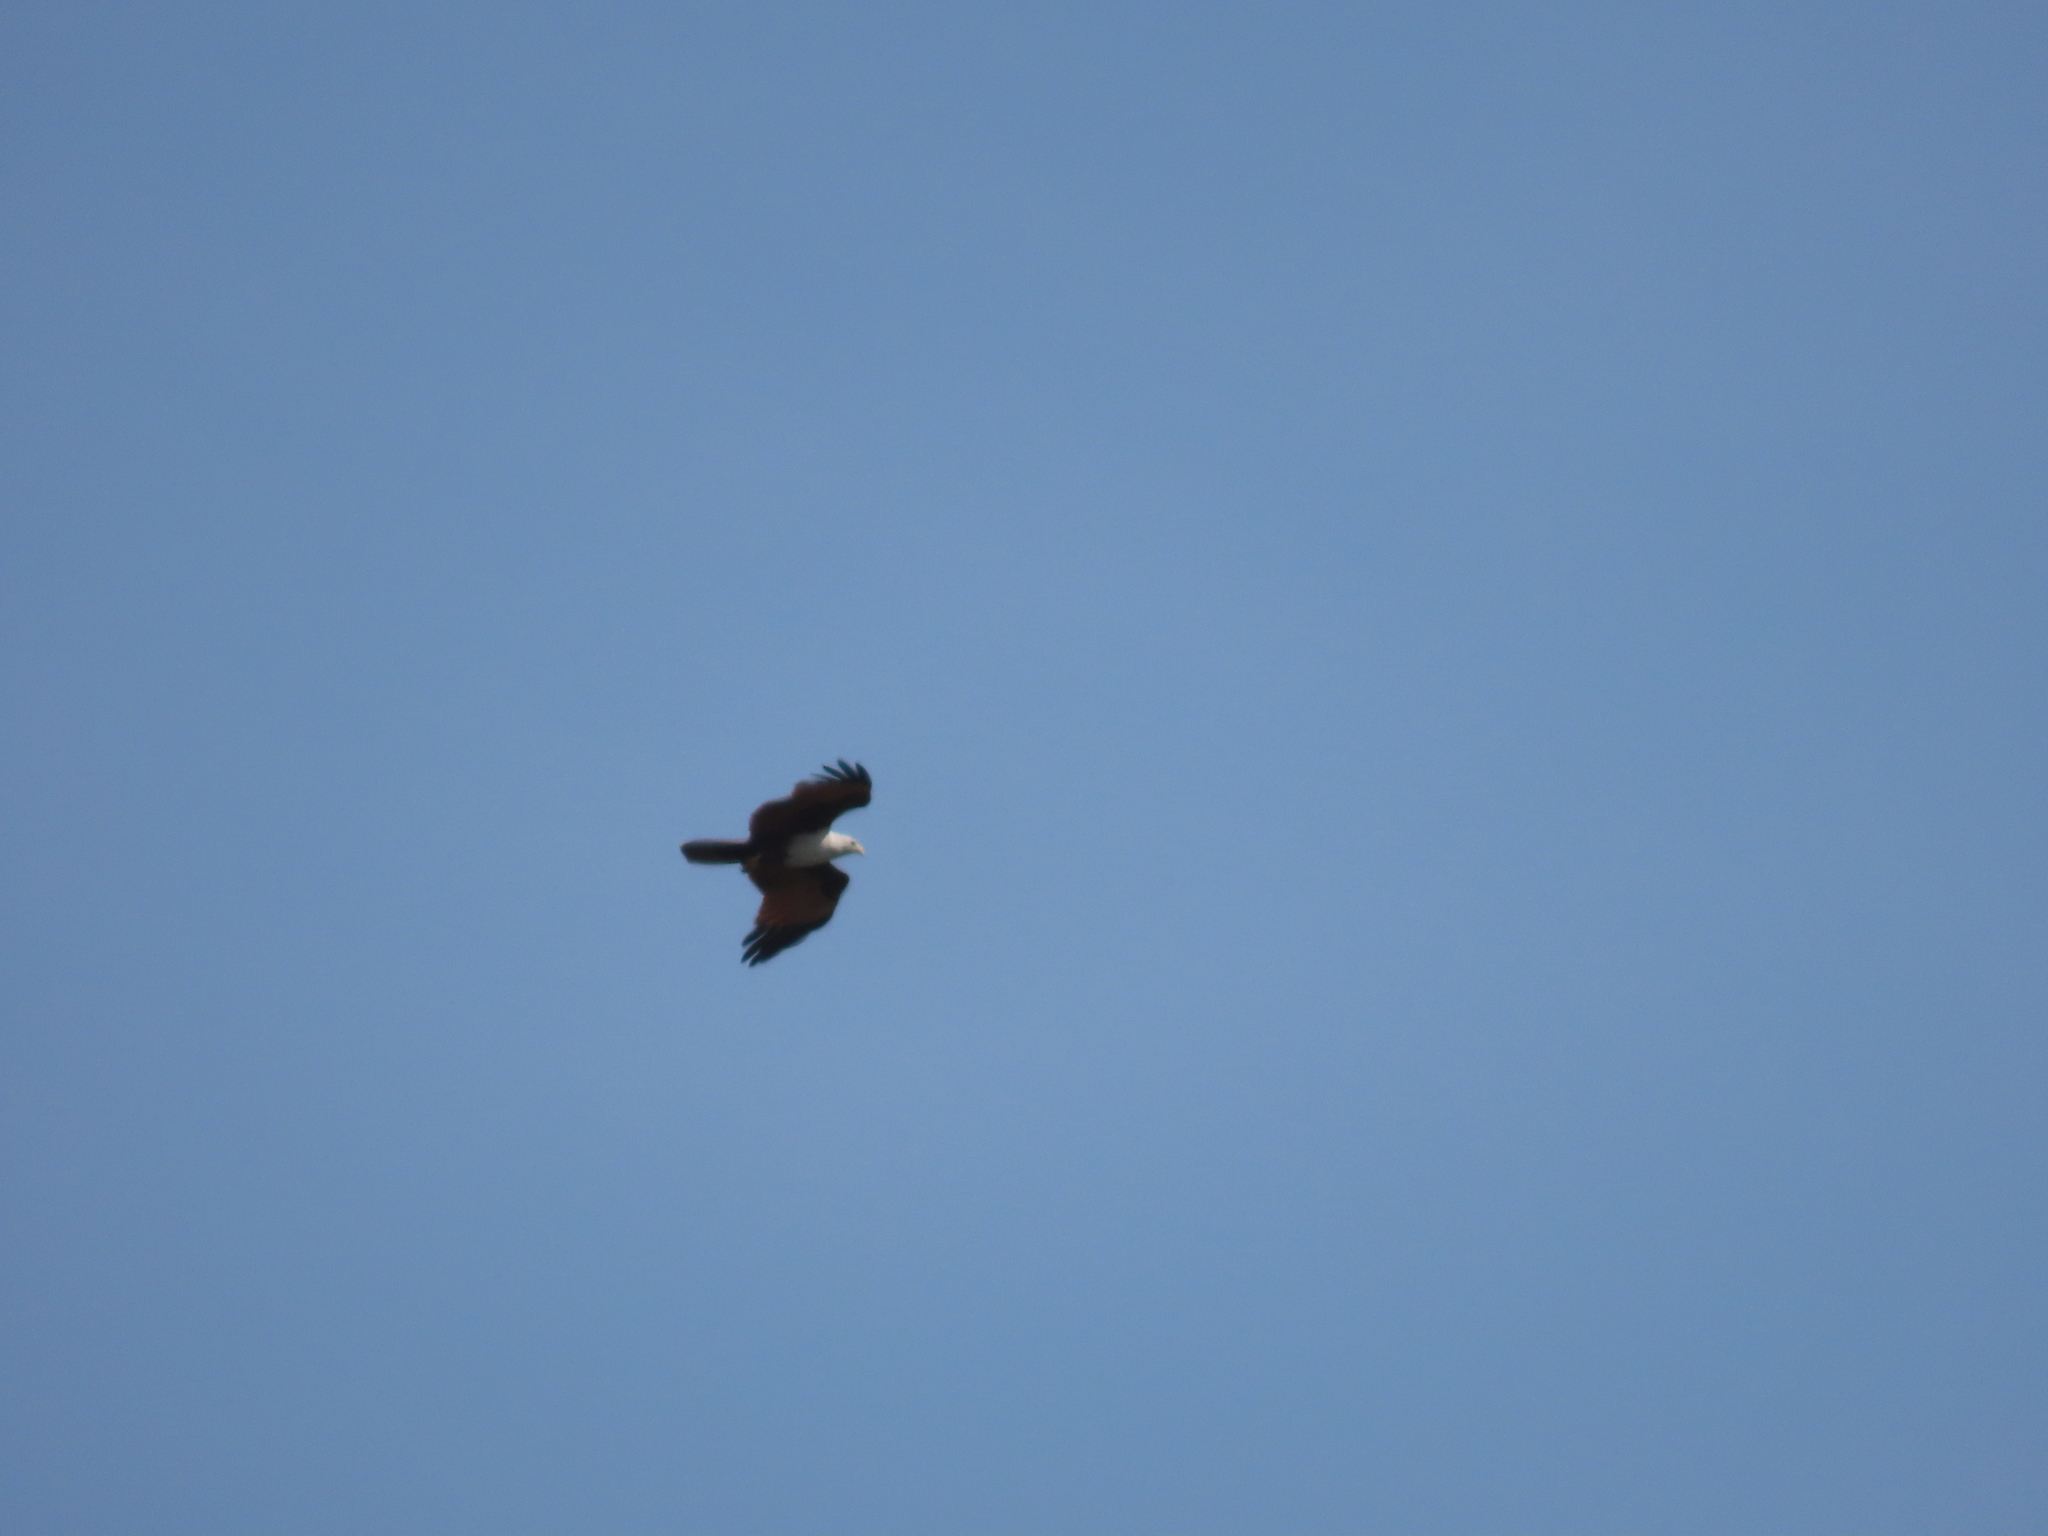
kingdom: Animalia
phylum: Chordata
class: Aves
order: Accipitriformes
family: Accipitridae
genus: Haliastur
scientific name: Haliastur indus
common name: Brahminy kite
